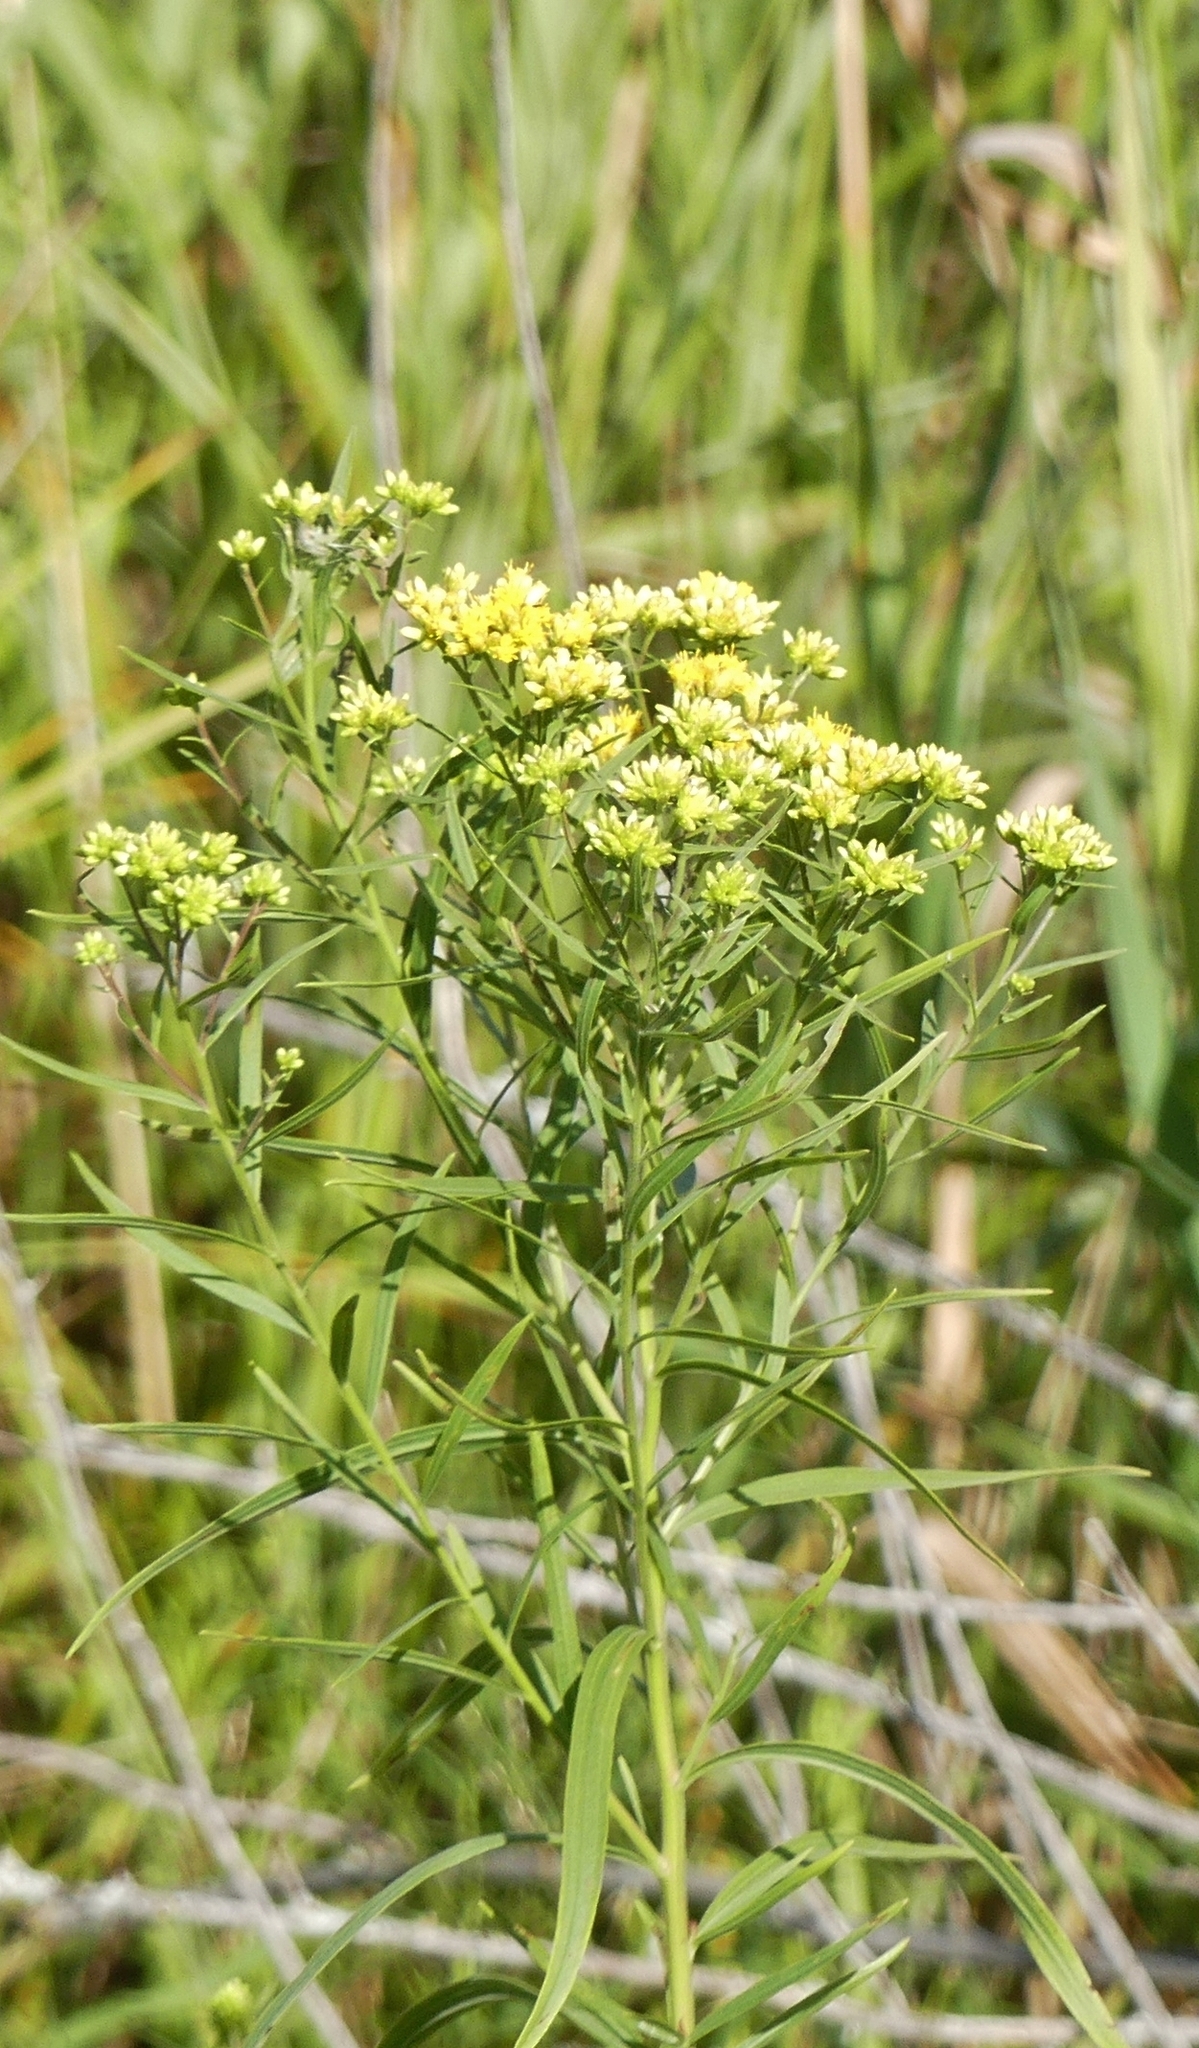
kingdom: Plantae
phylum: Tracheophyta
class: Magnoliopsida
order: Asterales
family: Asteraceae
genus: Euthamia
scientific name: Euthamia graminifolia
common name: Common goldentop
